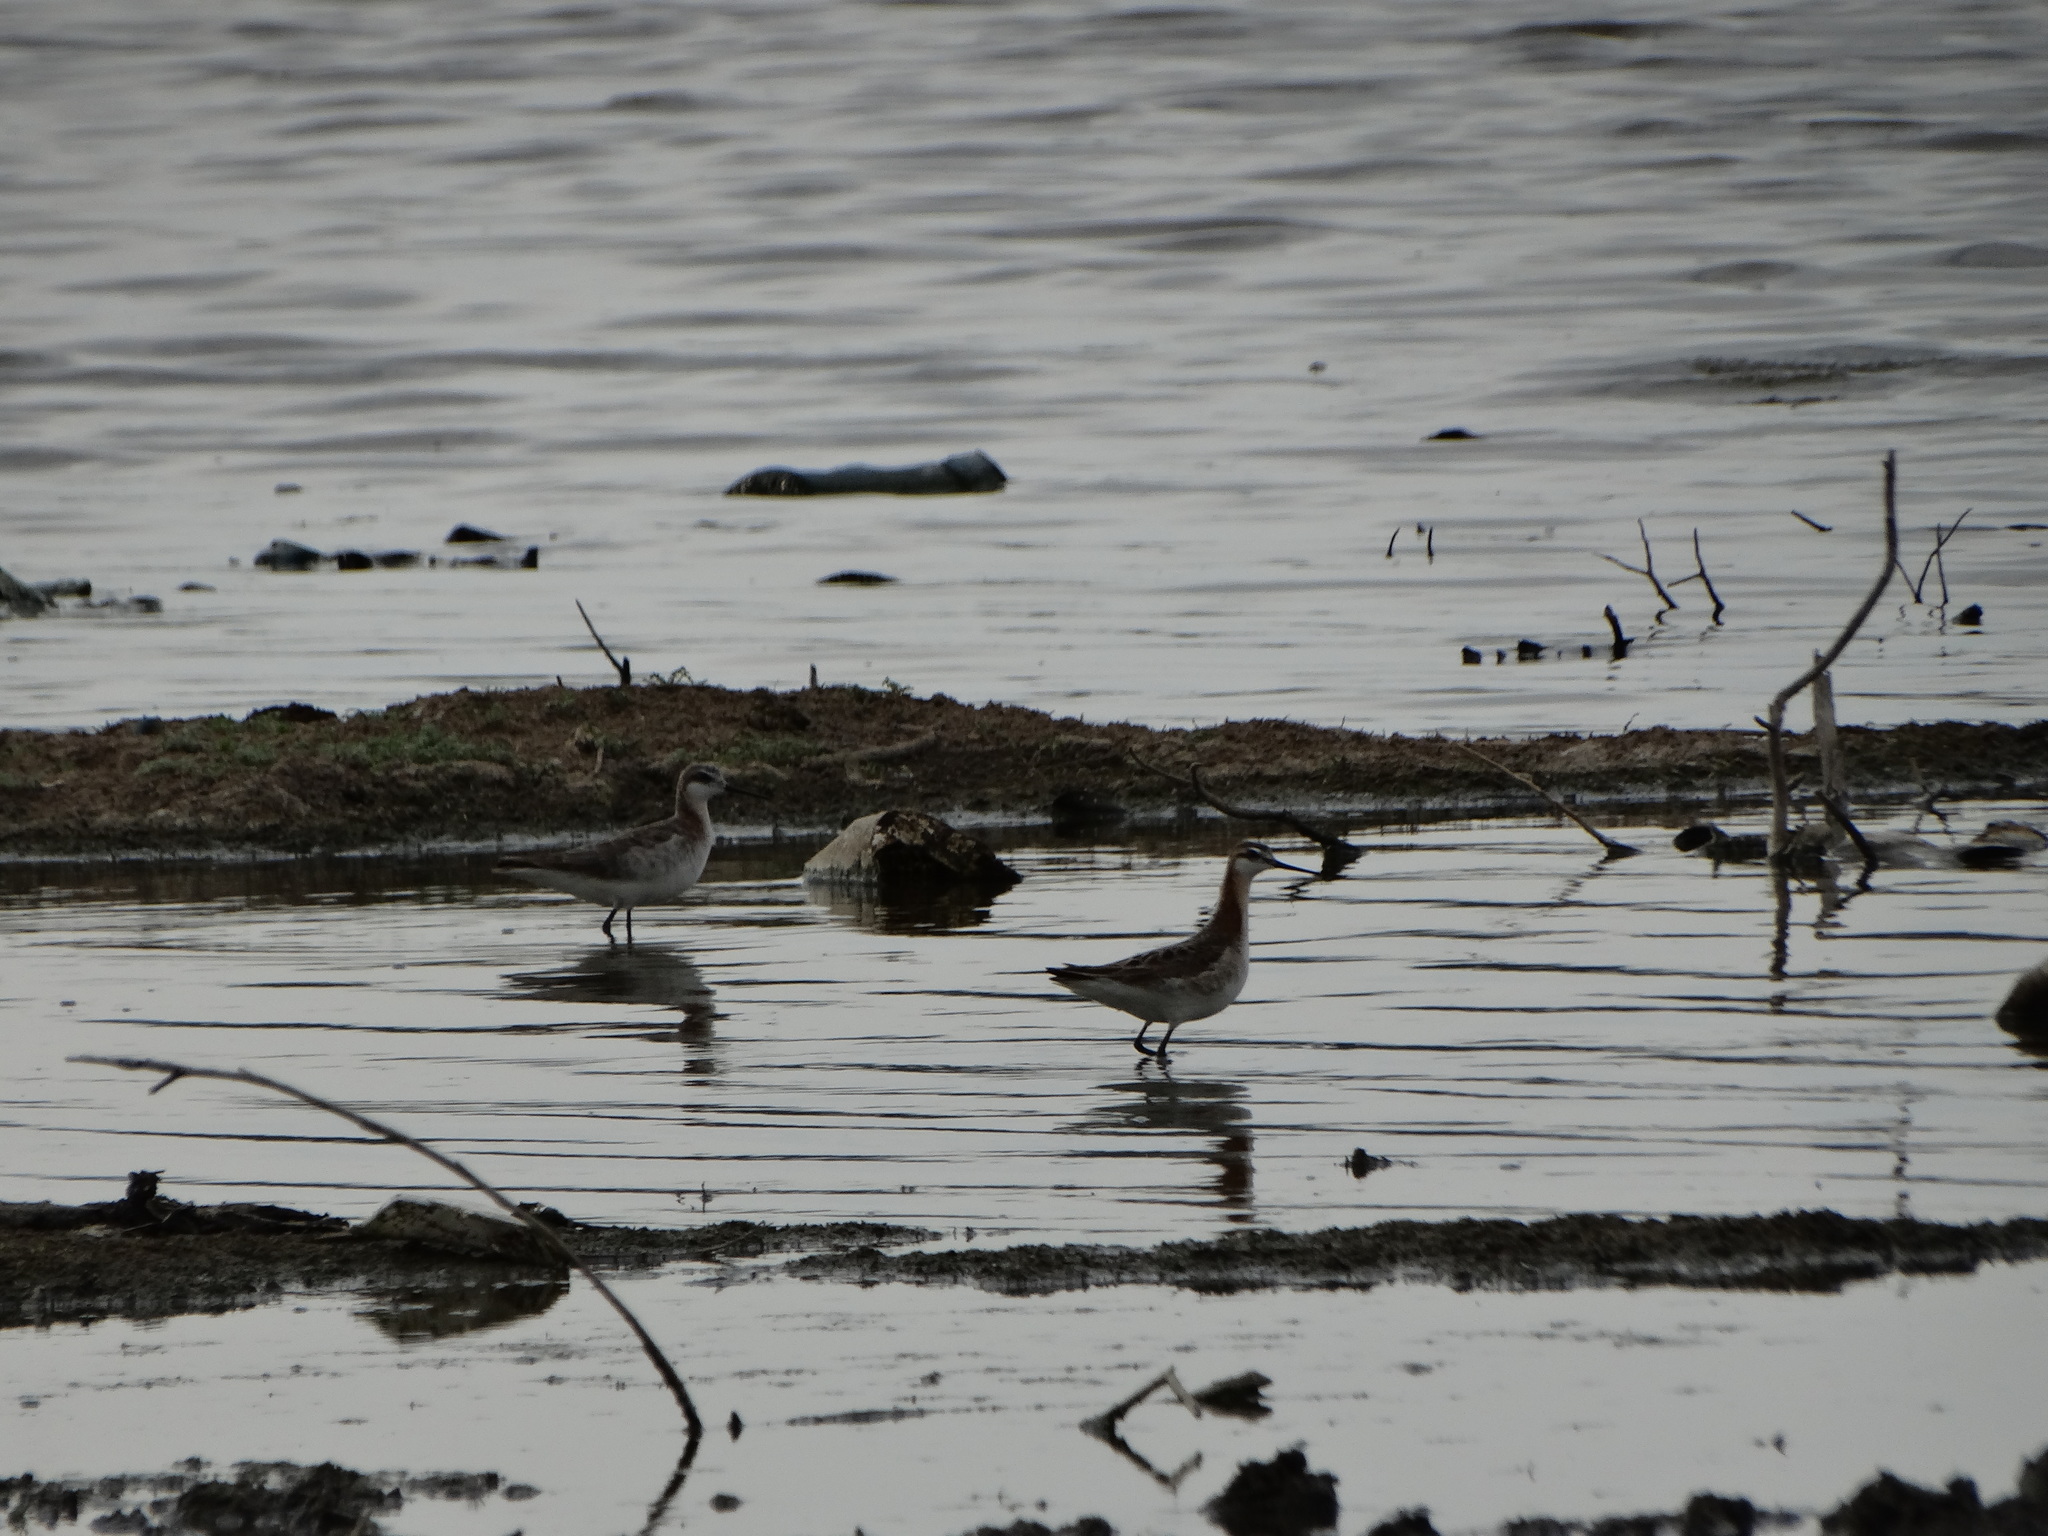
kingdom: Animalia
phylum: Chordata
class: Aves
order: Charadriiformes
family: Scolopacidae
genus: Phalaropus
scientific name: Phalaropus tricolor
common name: Wilson's phalarope
